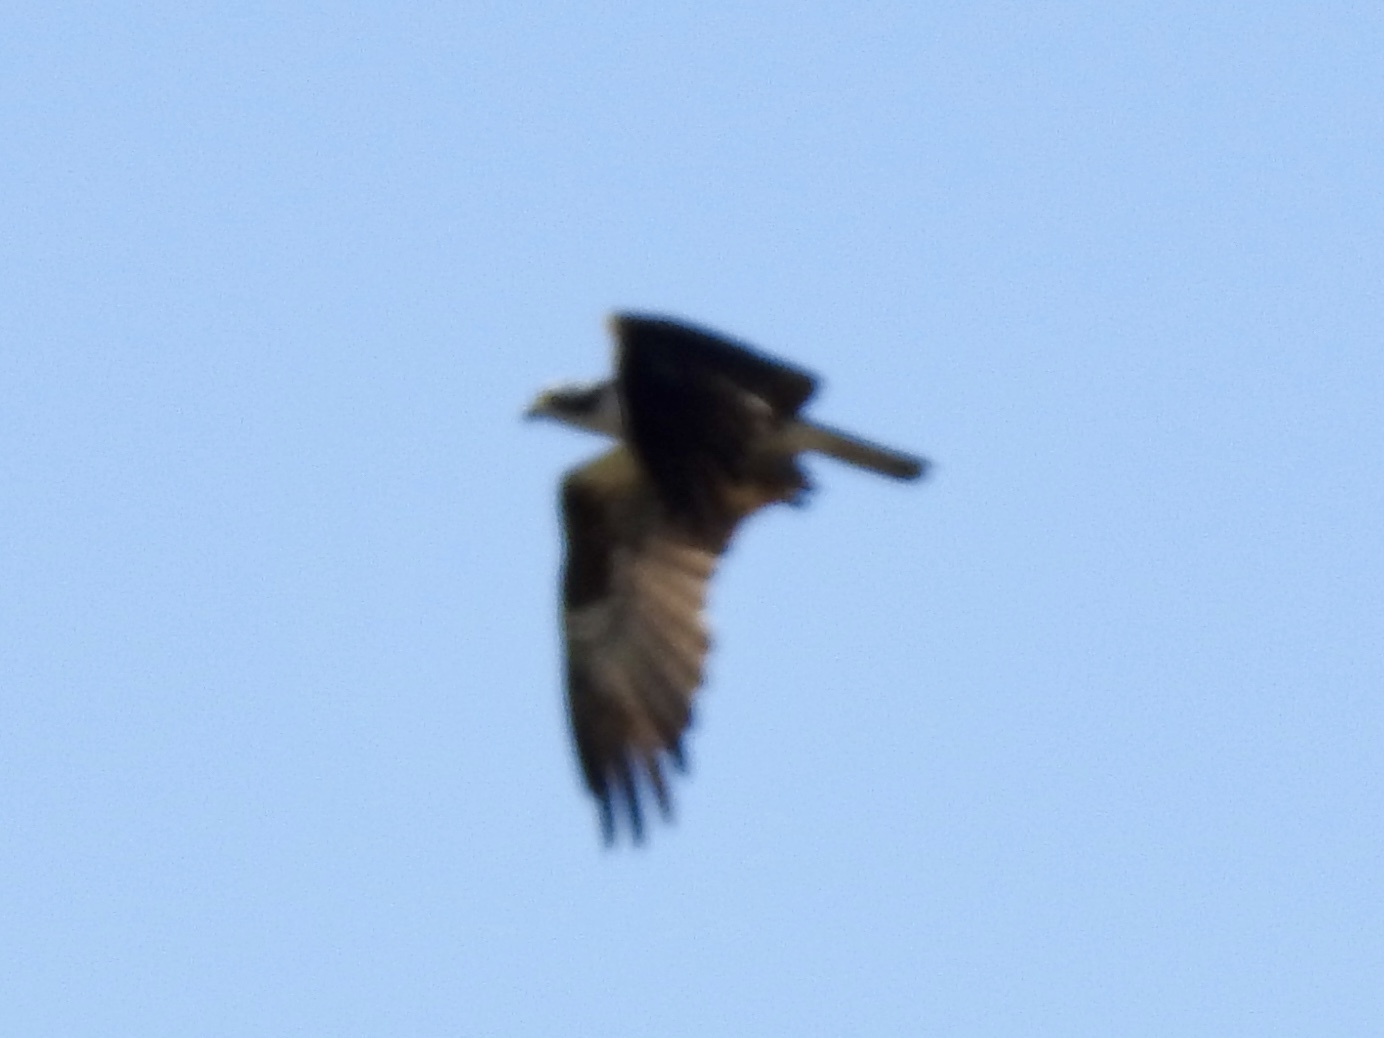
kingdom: Animalia
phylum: Chordata
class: Aves
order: Accipitriformes
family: Pandionidae
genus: Pandion
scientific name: Pandion haliaetus
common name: Osprey
